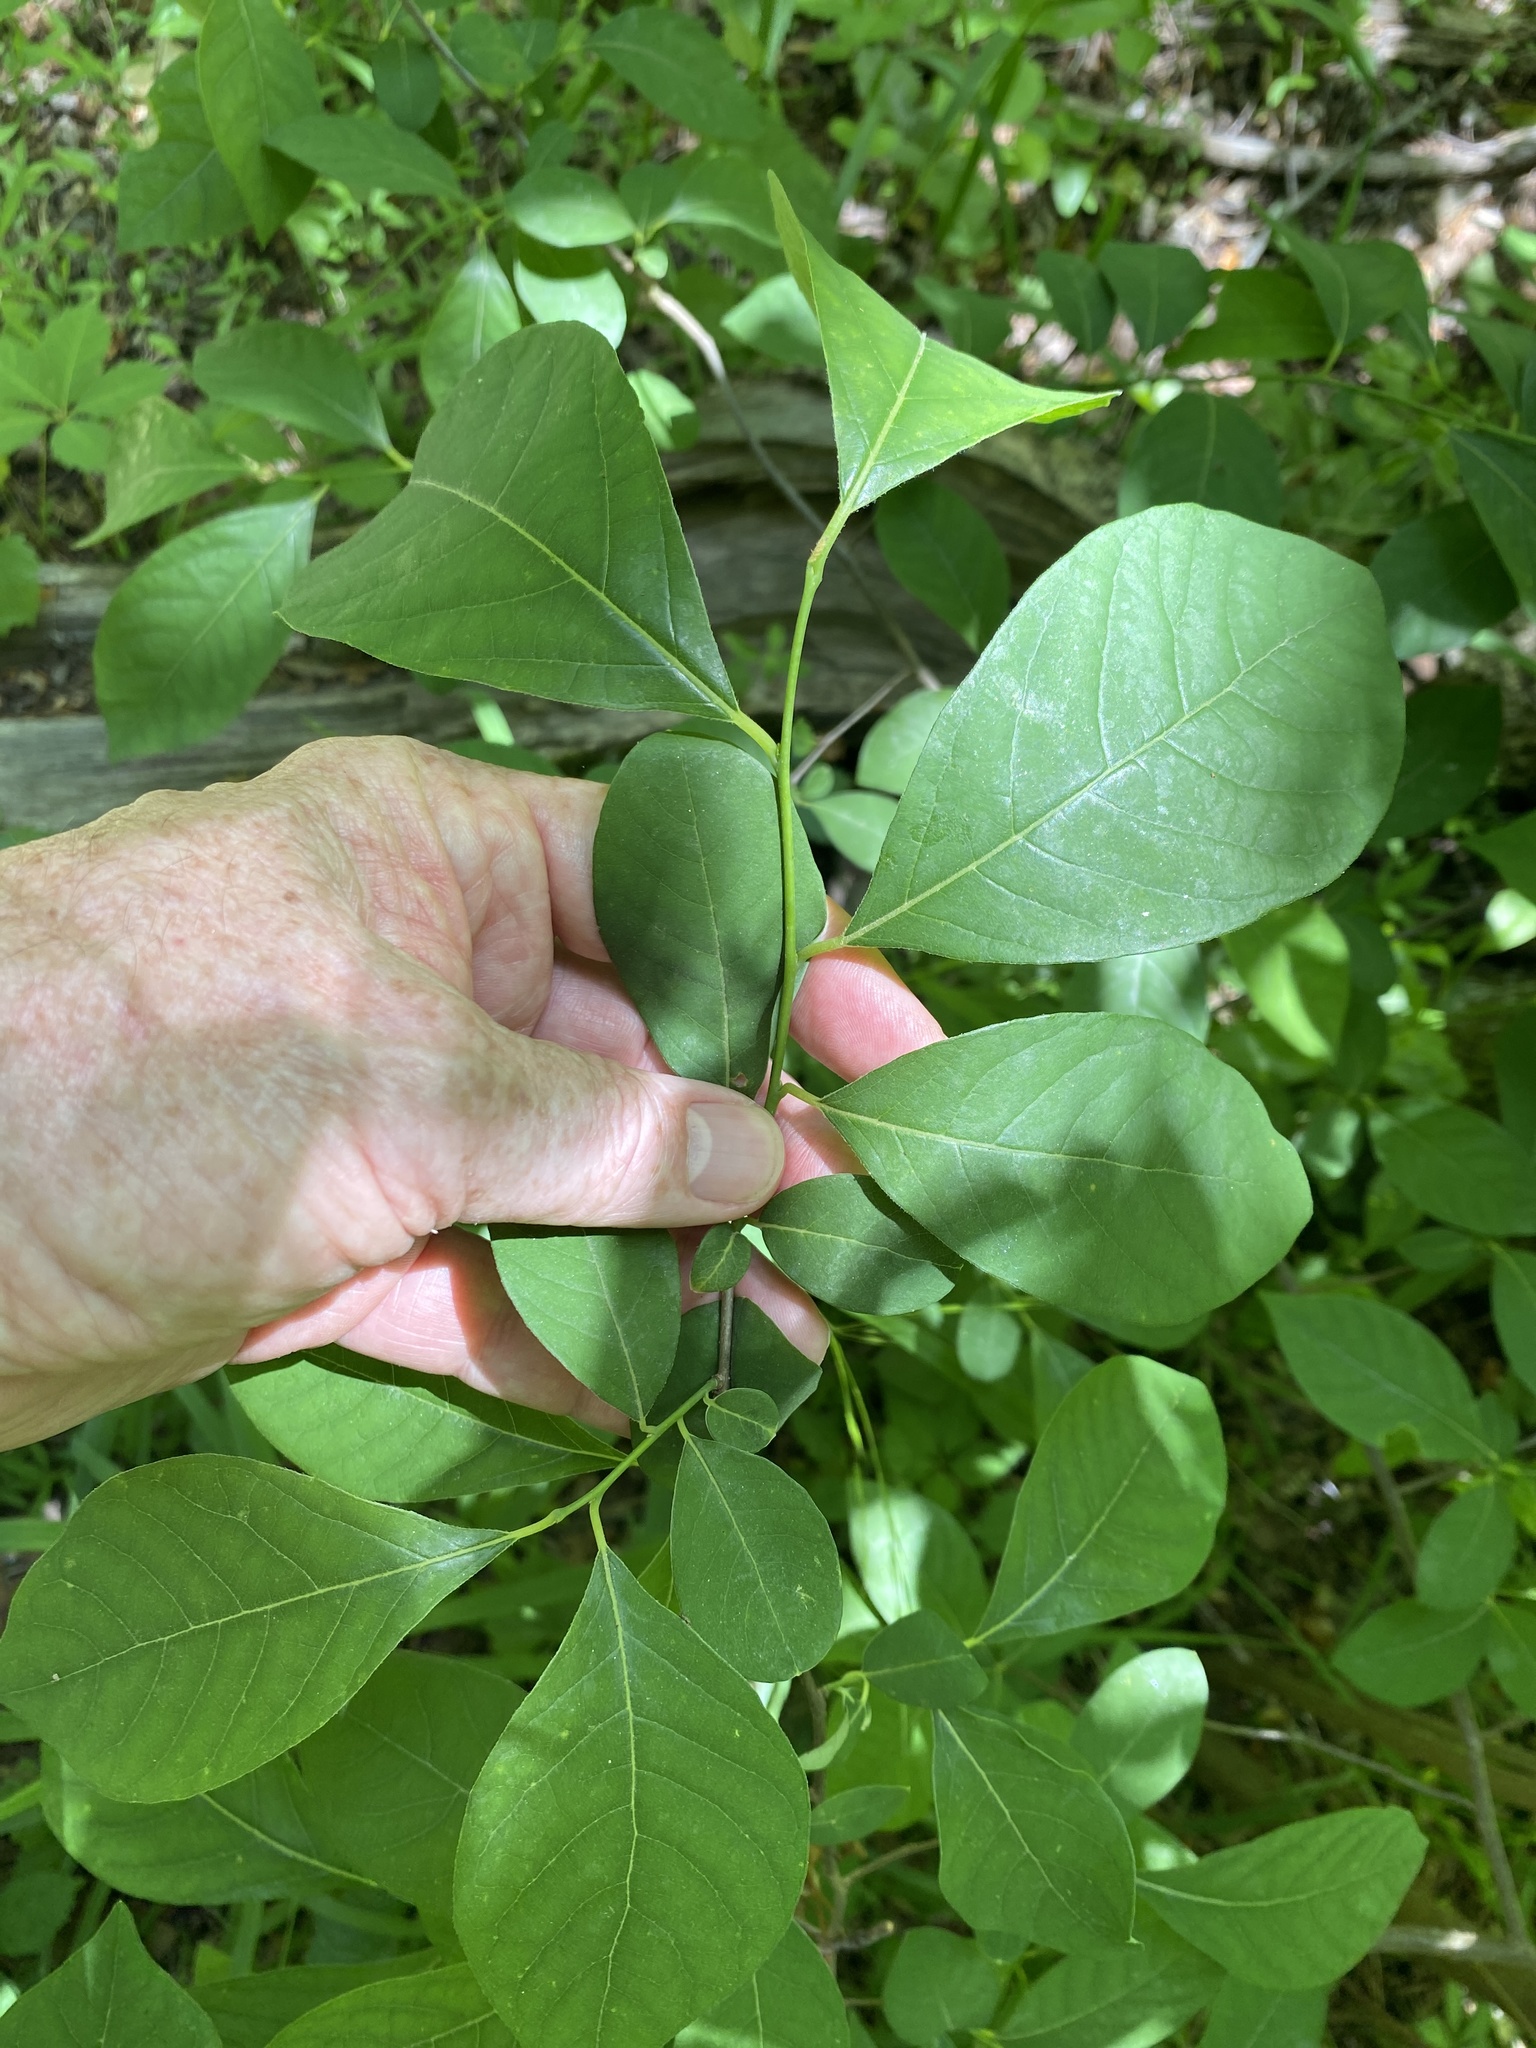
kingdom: Plantae
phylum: Tracheophyta
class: Magnoliopsida
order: Laurales
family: Lauraceae
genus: Lindera
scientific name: Lindera benzoin
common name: Spicebush
